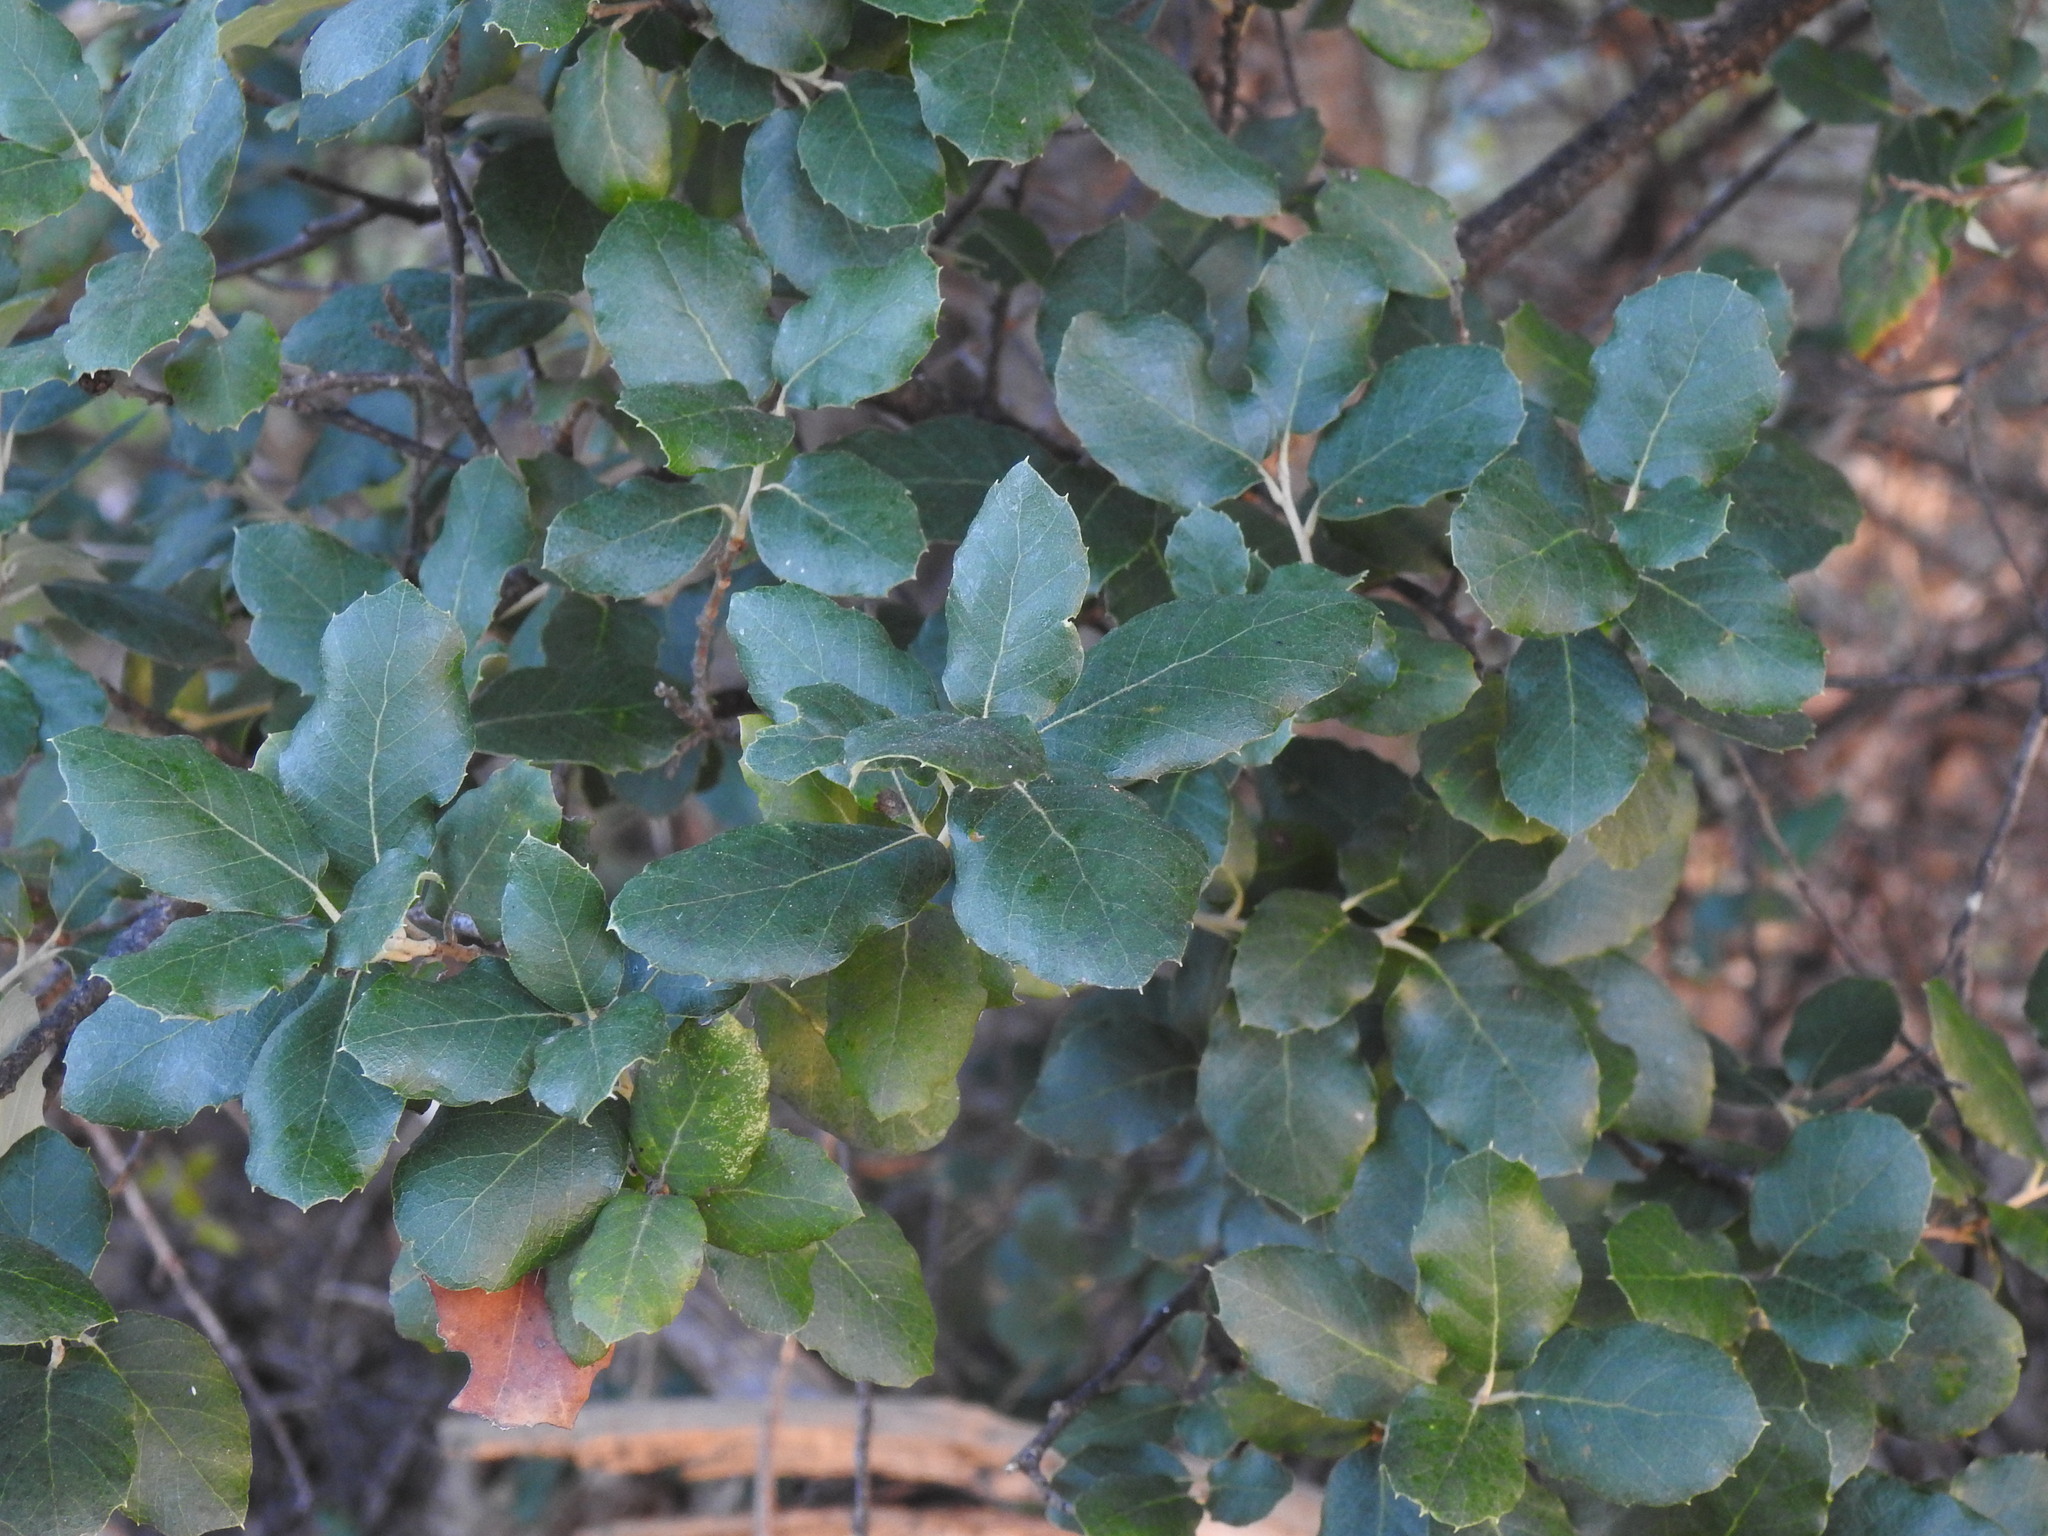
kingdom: Plantae
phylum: Tracheophyta
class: Magnoliopsida
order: Fagales
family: Fagaceae
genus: Quercus
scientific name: Quercus suber
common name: Cork oak
